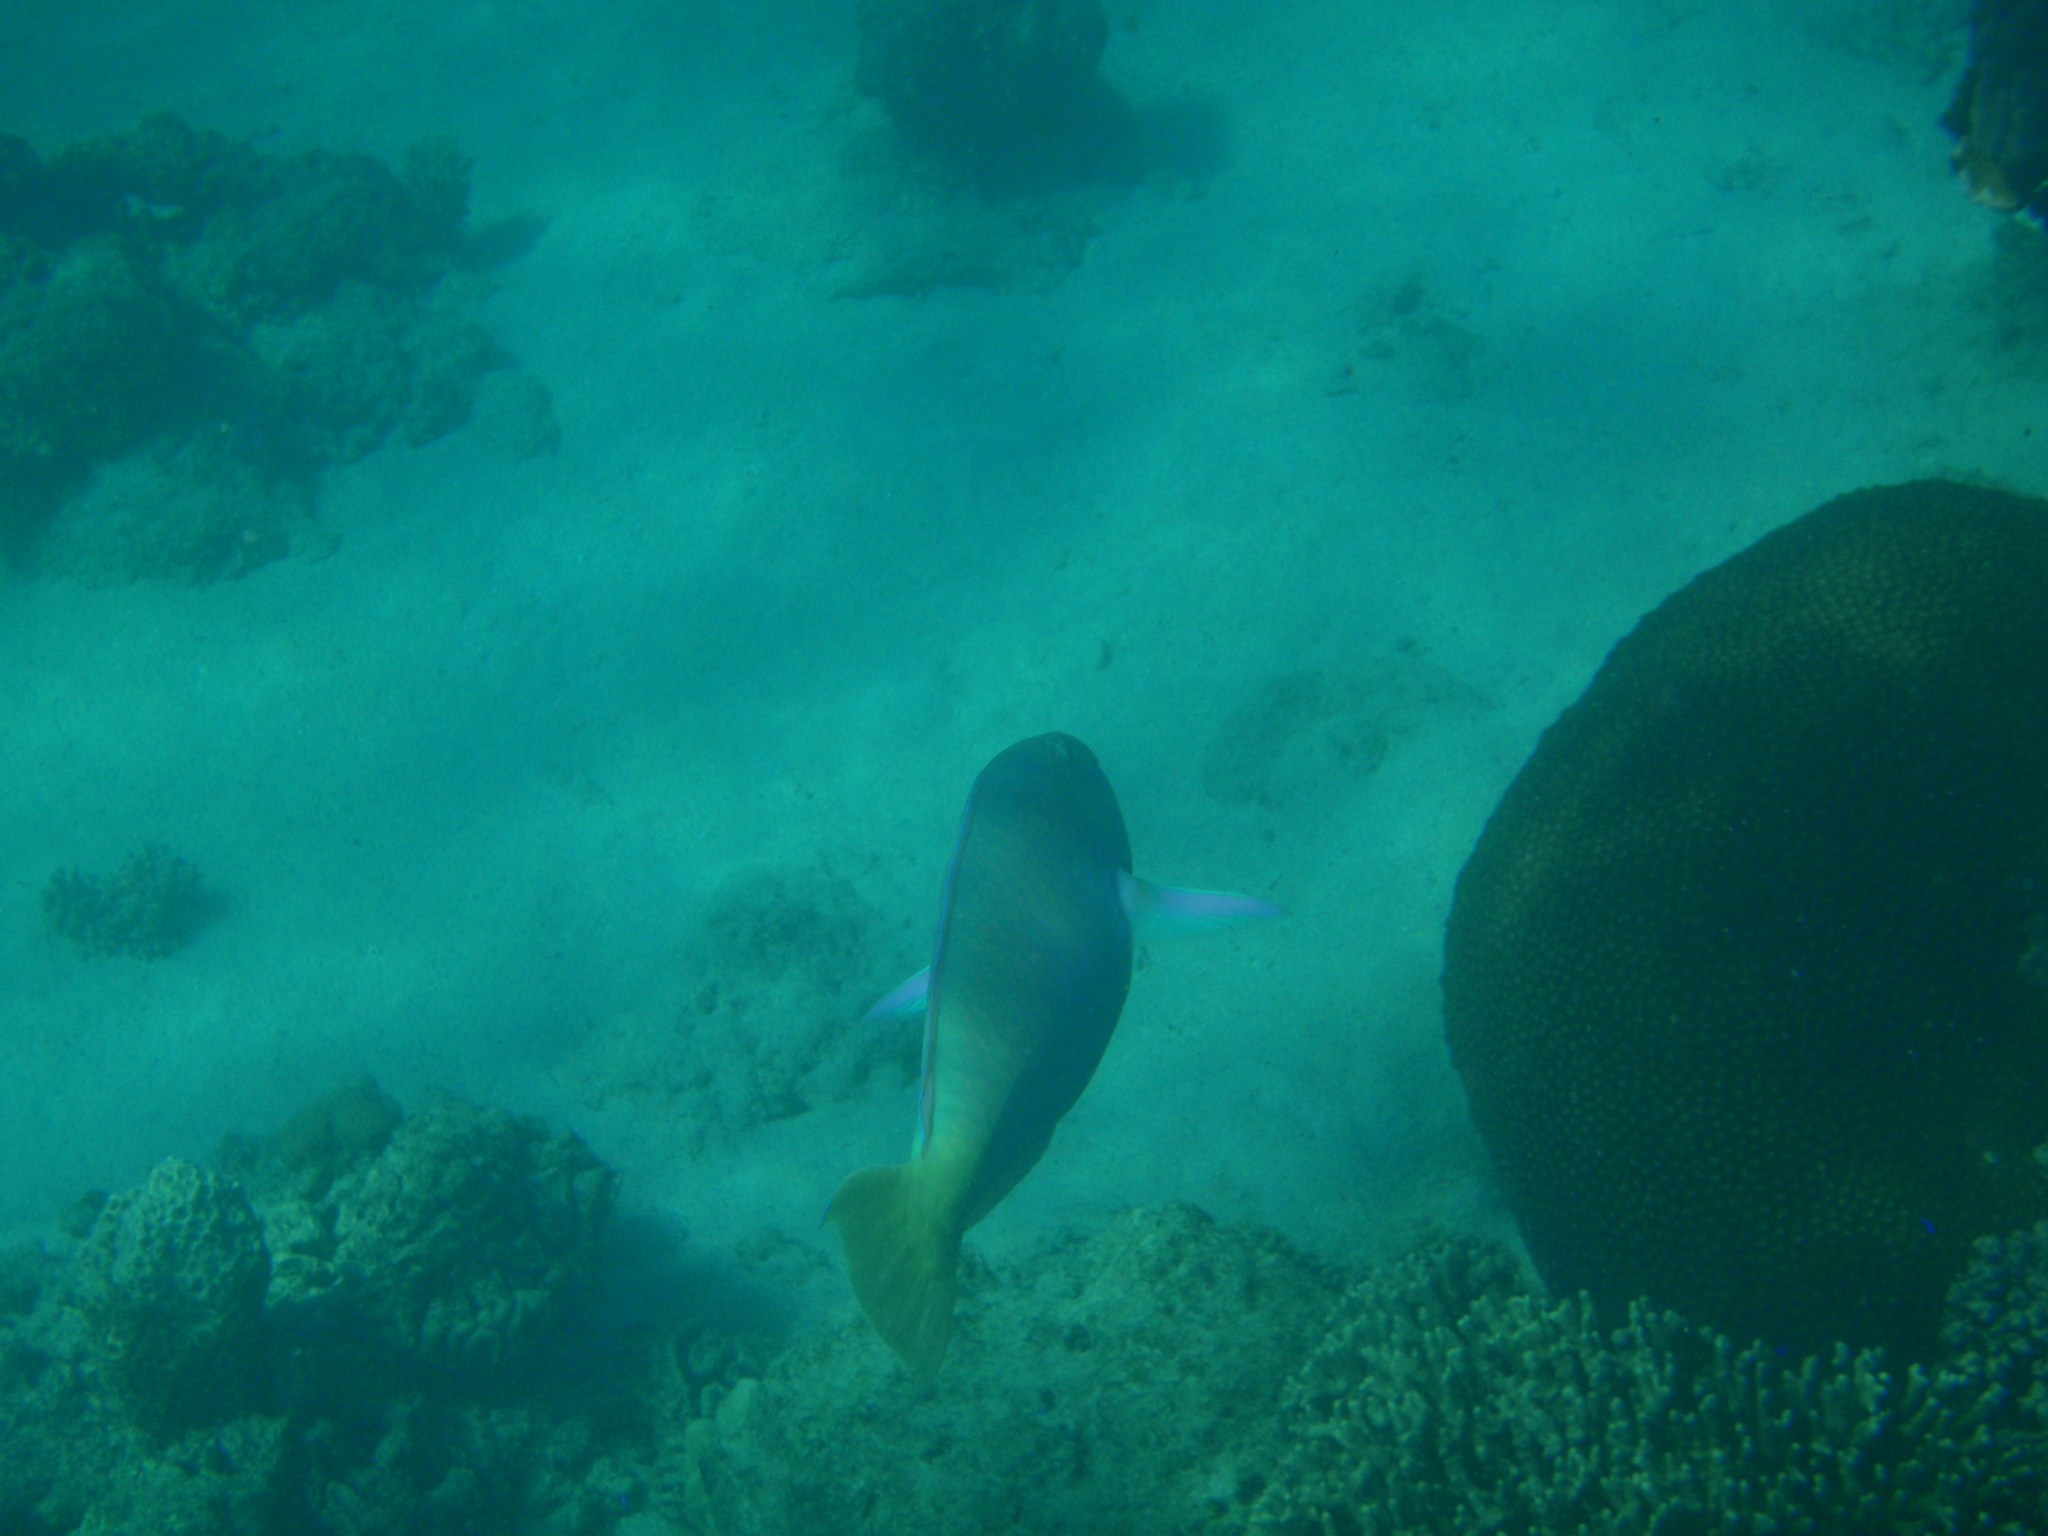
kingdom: Animalia
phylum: Chordata
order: Perciformes
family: Scaridae
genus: Hipposcarus
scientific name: Hipposcarus longiceps
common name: Pacific longnose parrotfish
